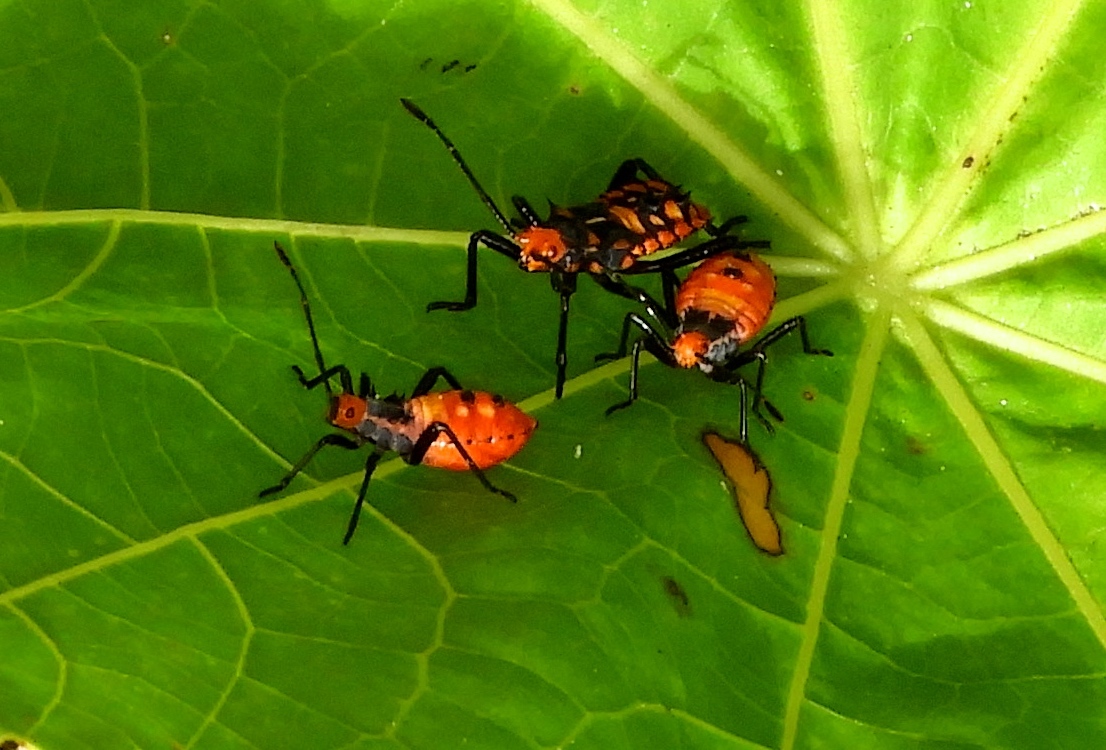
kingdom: Animalia
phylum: Arthropoda
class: Insecta
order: Hemiptera
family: Coreidae
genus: Sagotylus
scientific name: Sagotylus confluens
